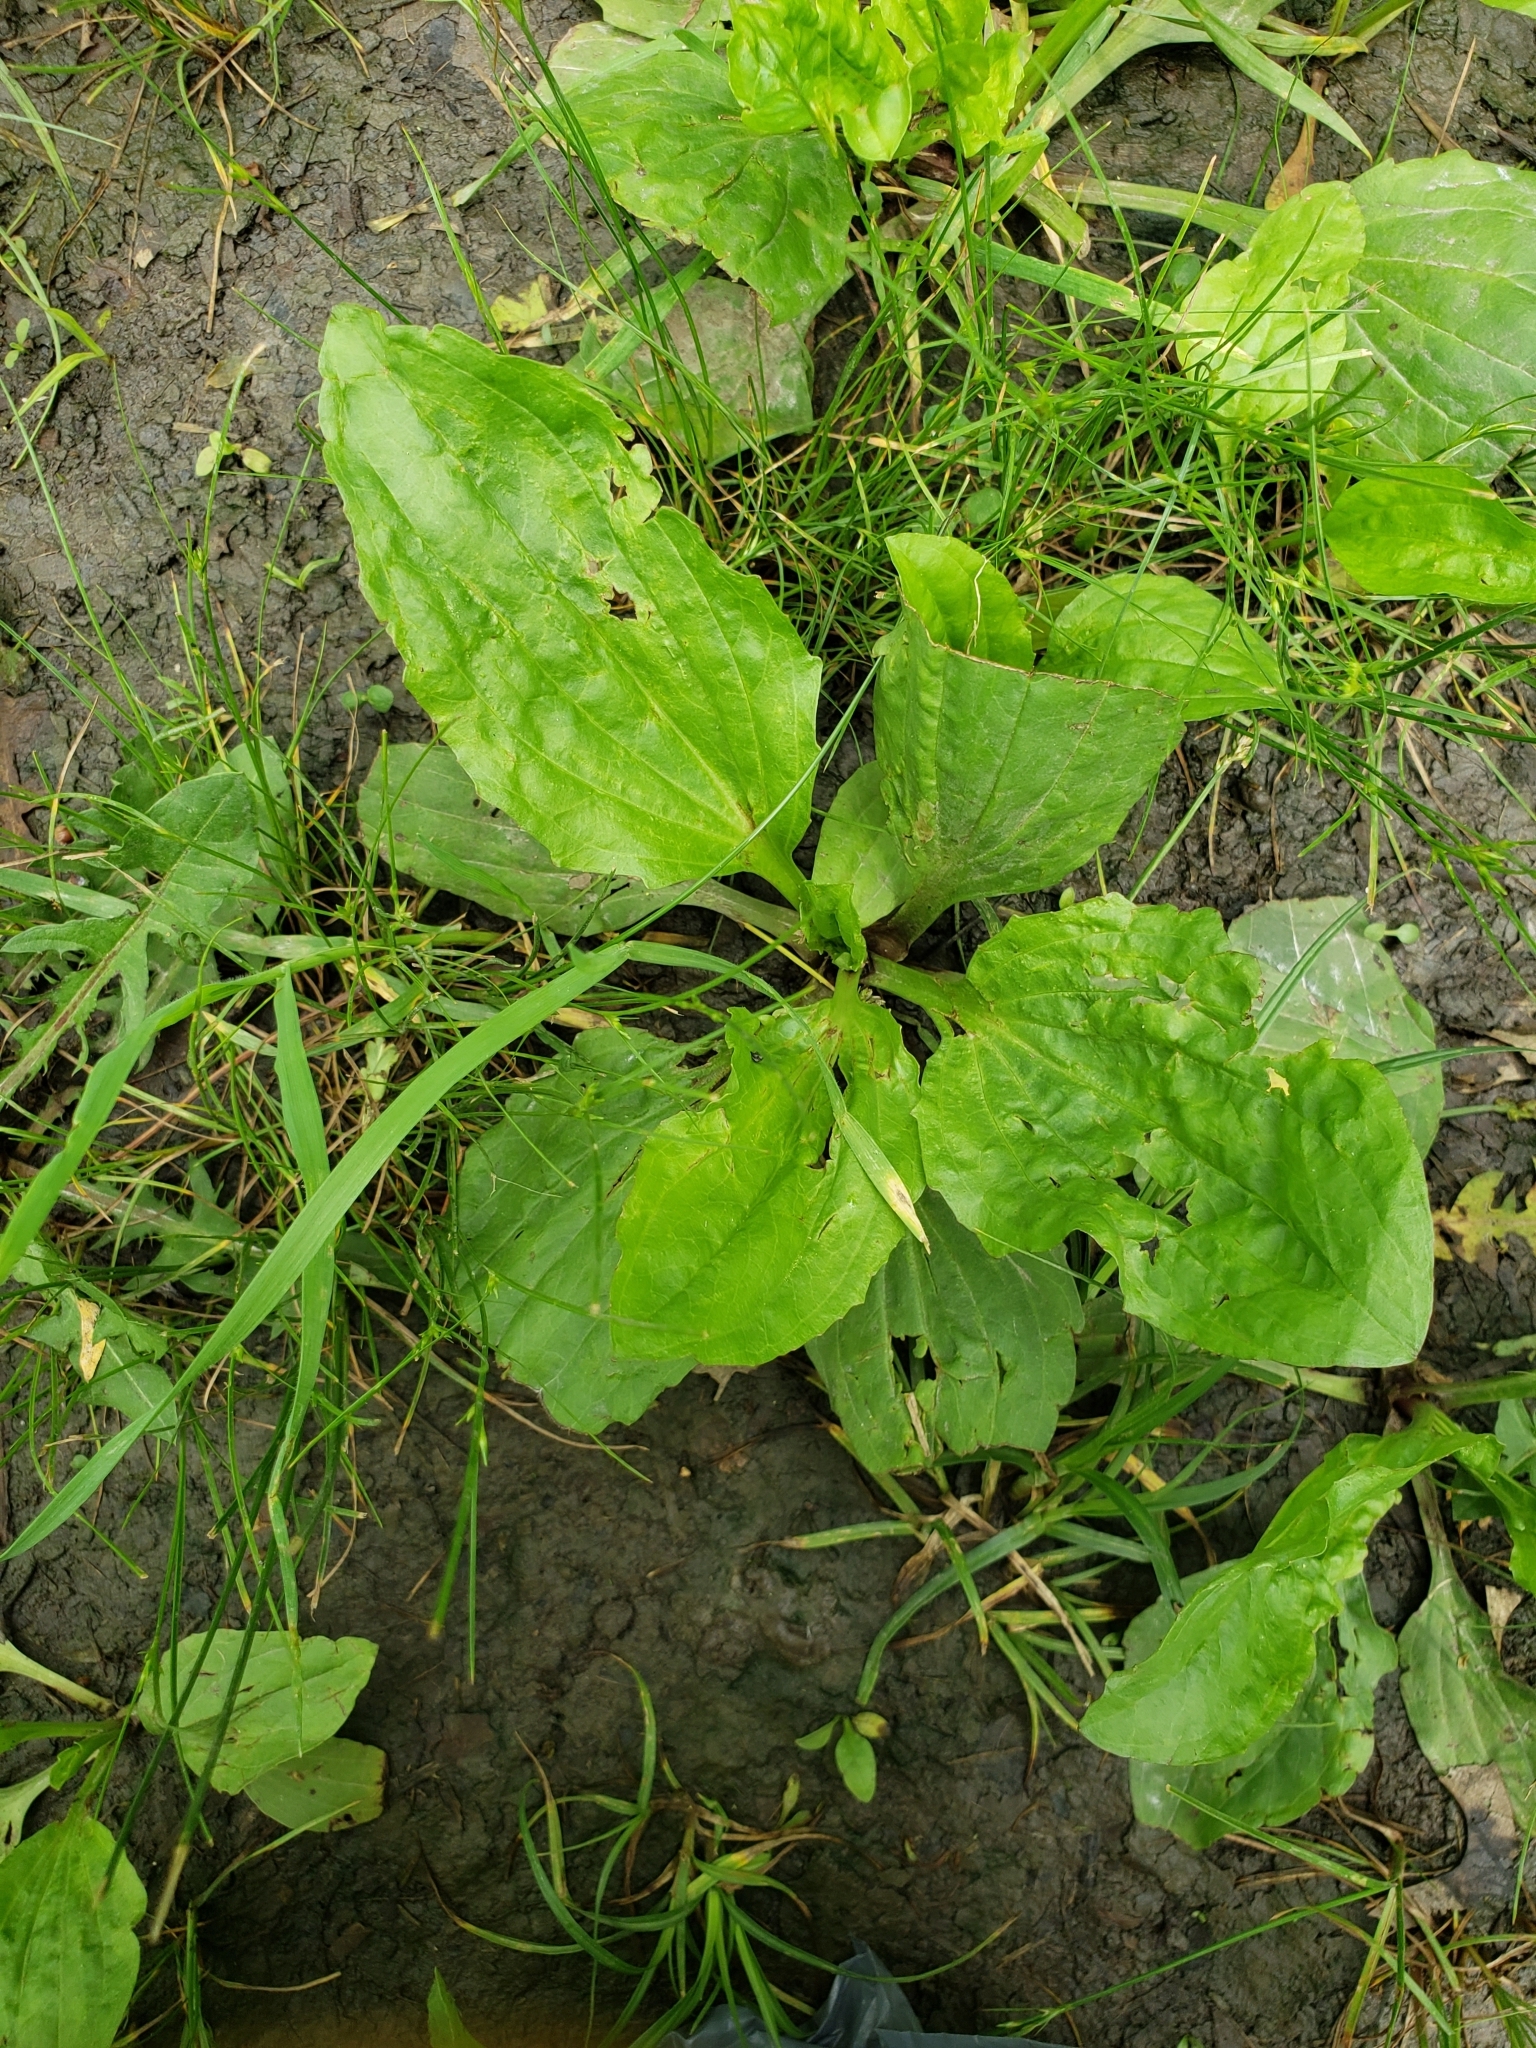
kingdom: Plantae
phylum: Tracheophyta
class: Magnoliopsida
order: Lamiales
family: Plantaginaceae
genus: Plantago
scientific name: Plantago rugelii
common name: American plantain
